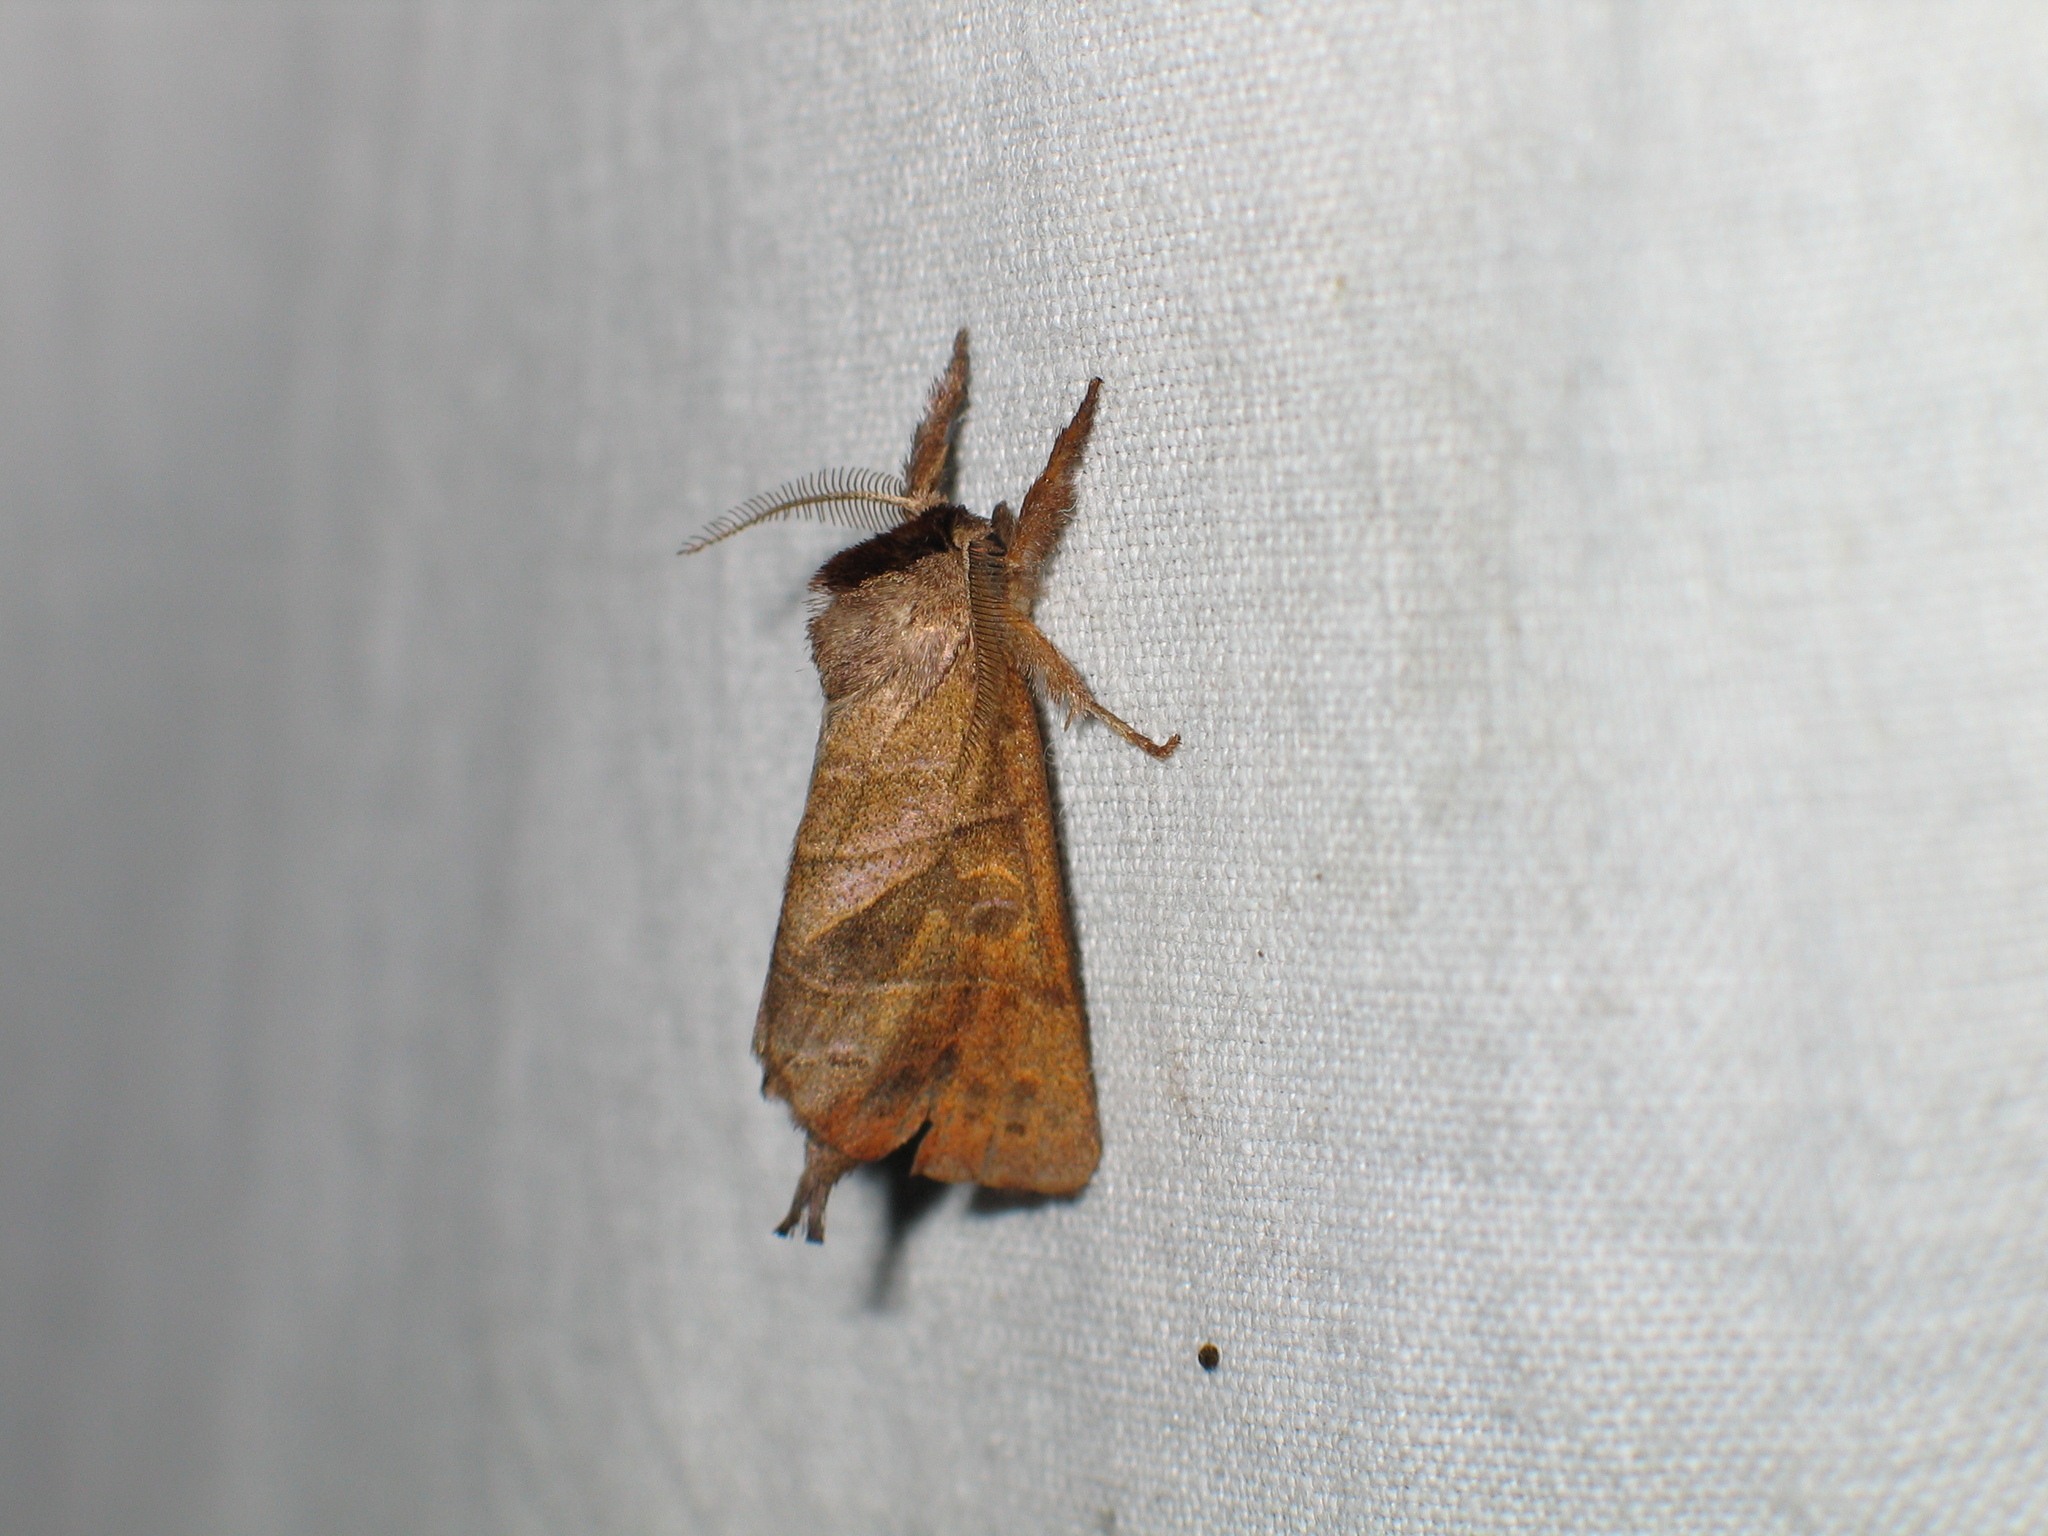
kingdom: Animalia
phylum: Arthropoda
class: Insecta
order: Lepidoptera
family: Notodontidae
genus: Clostera
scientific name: Clostera anastomosis
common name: Poplar tip moth
